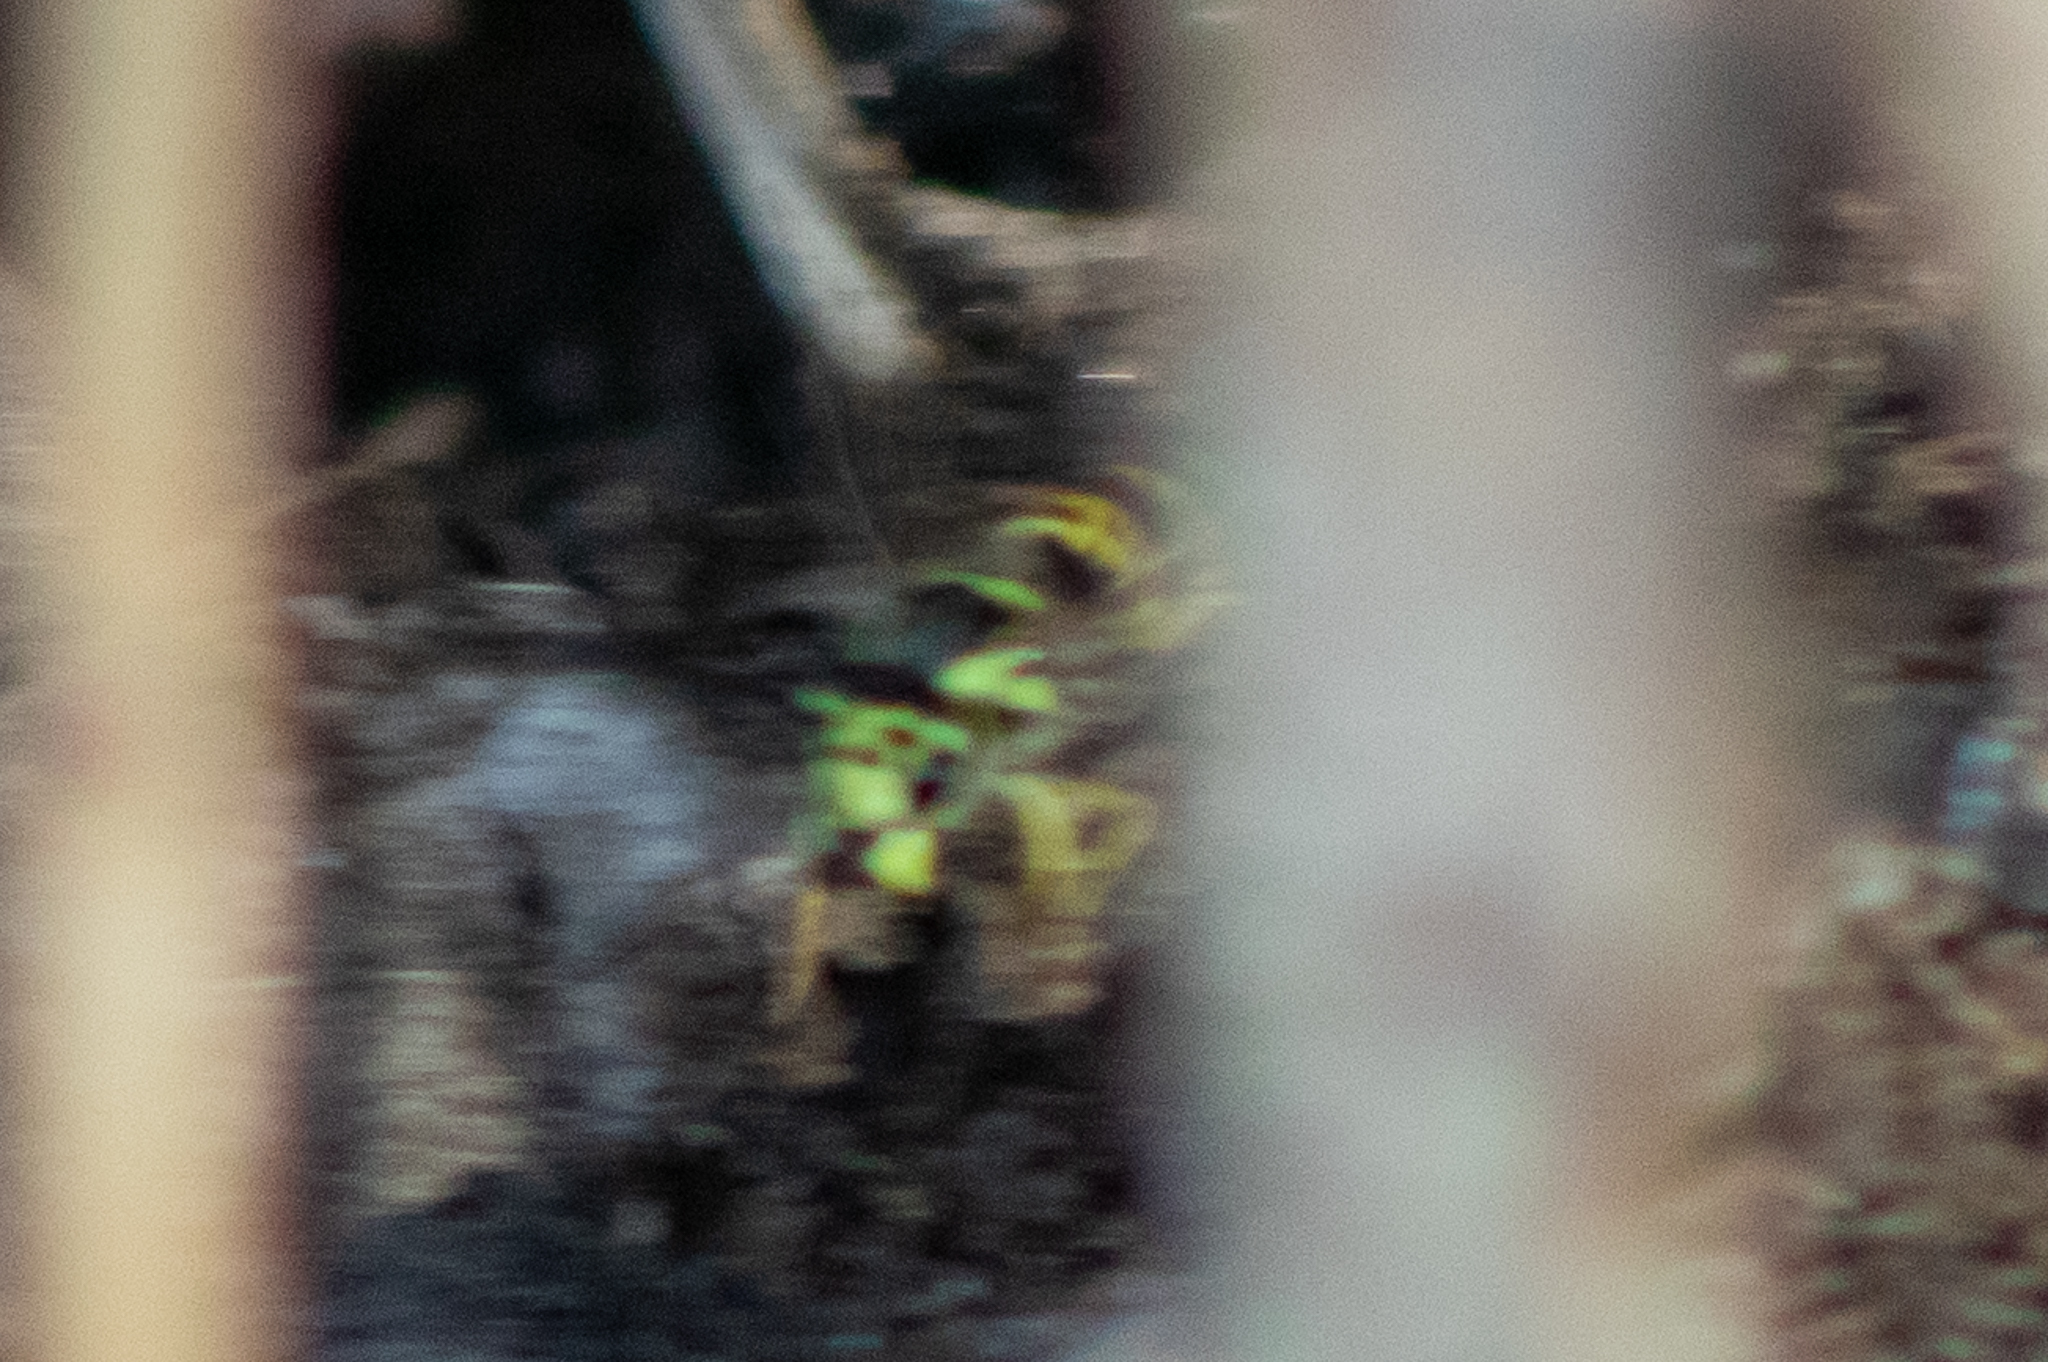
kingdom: Animalia
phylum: Arthropoda
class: Insecta
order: Hymenoptera
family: Vespidae
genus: Vespula
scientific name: Vespula
